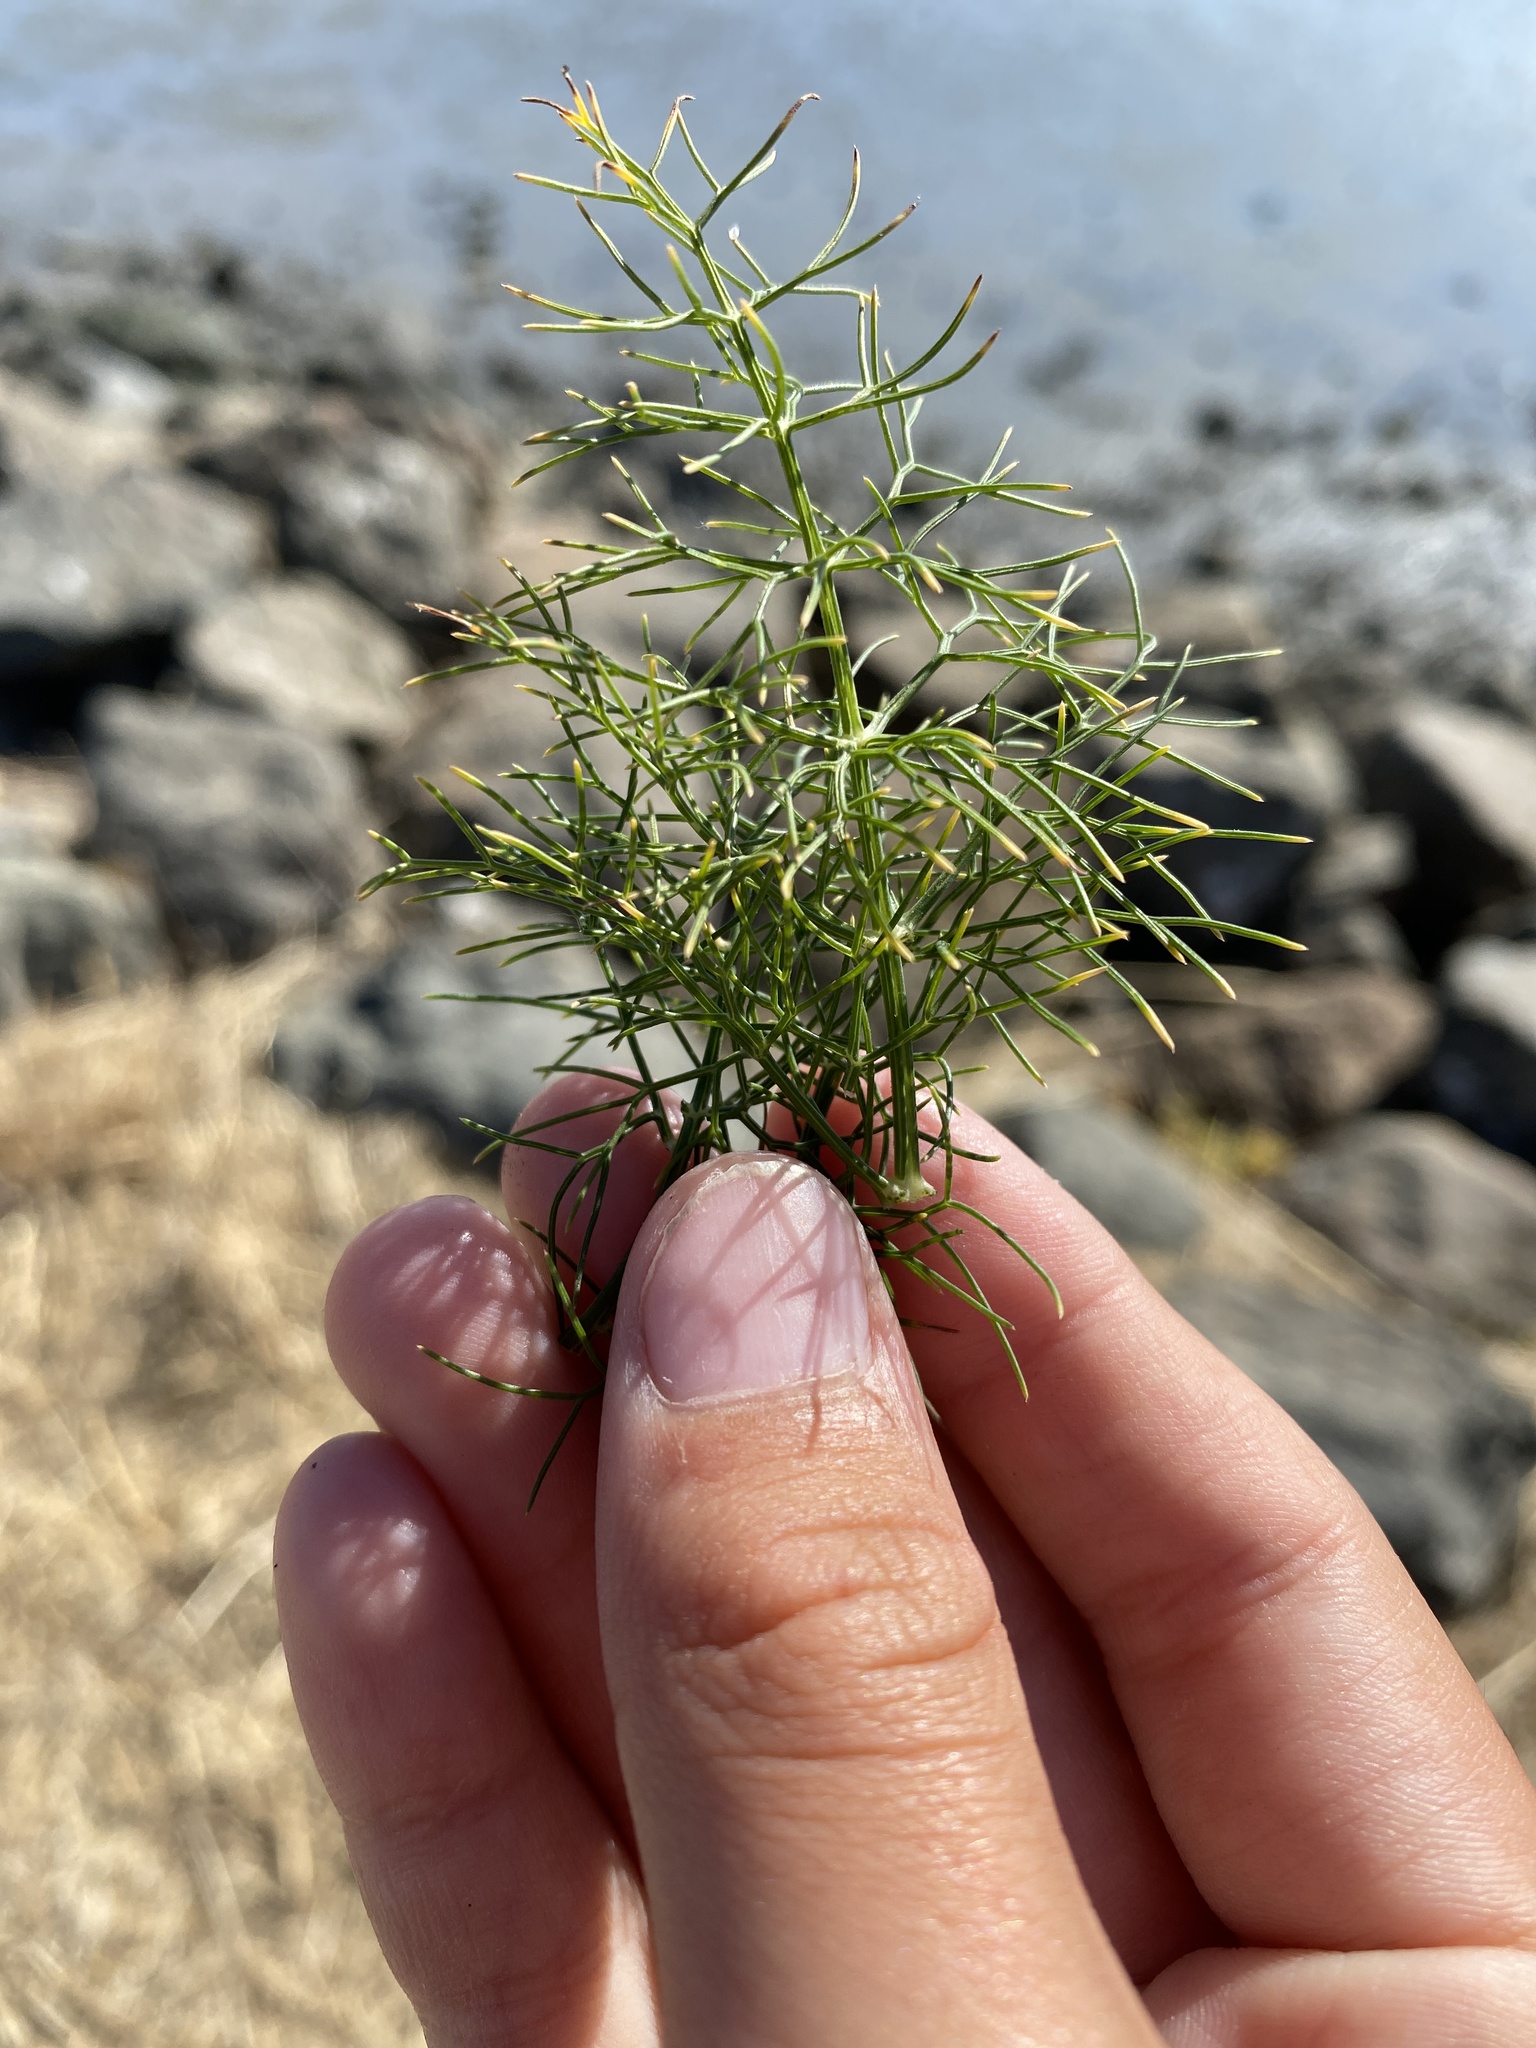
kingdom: Plantae
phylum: Tracheophyta
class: Magnoliopsida
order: Apiales
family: Apiaceae
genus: Foeniculum
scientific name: Foeniculum vulgare
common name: Fennel
